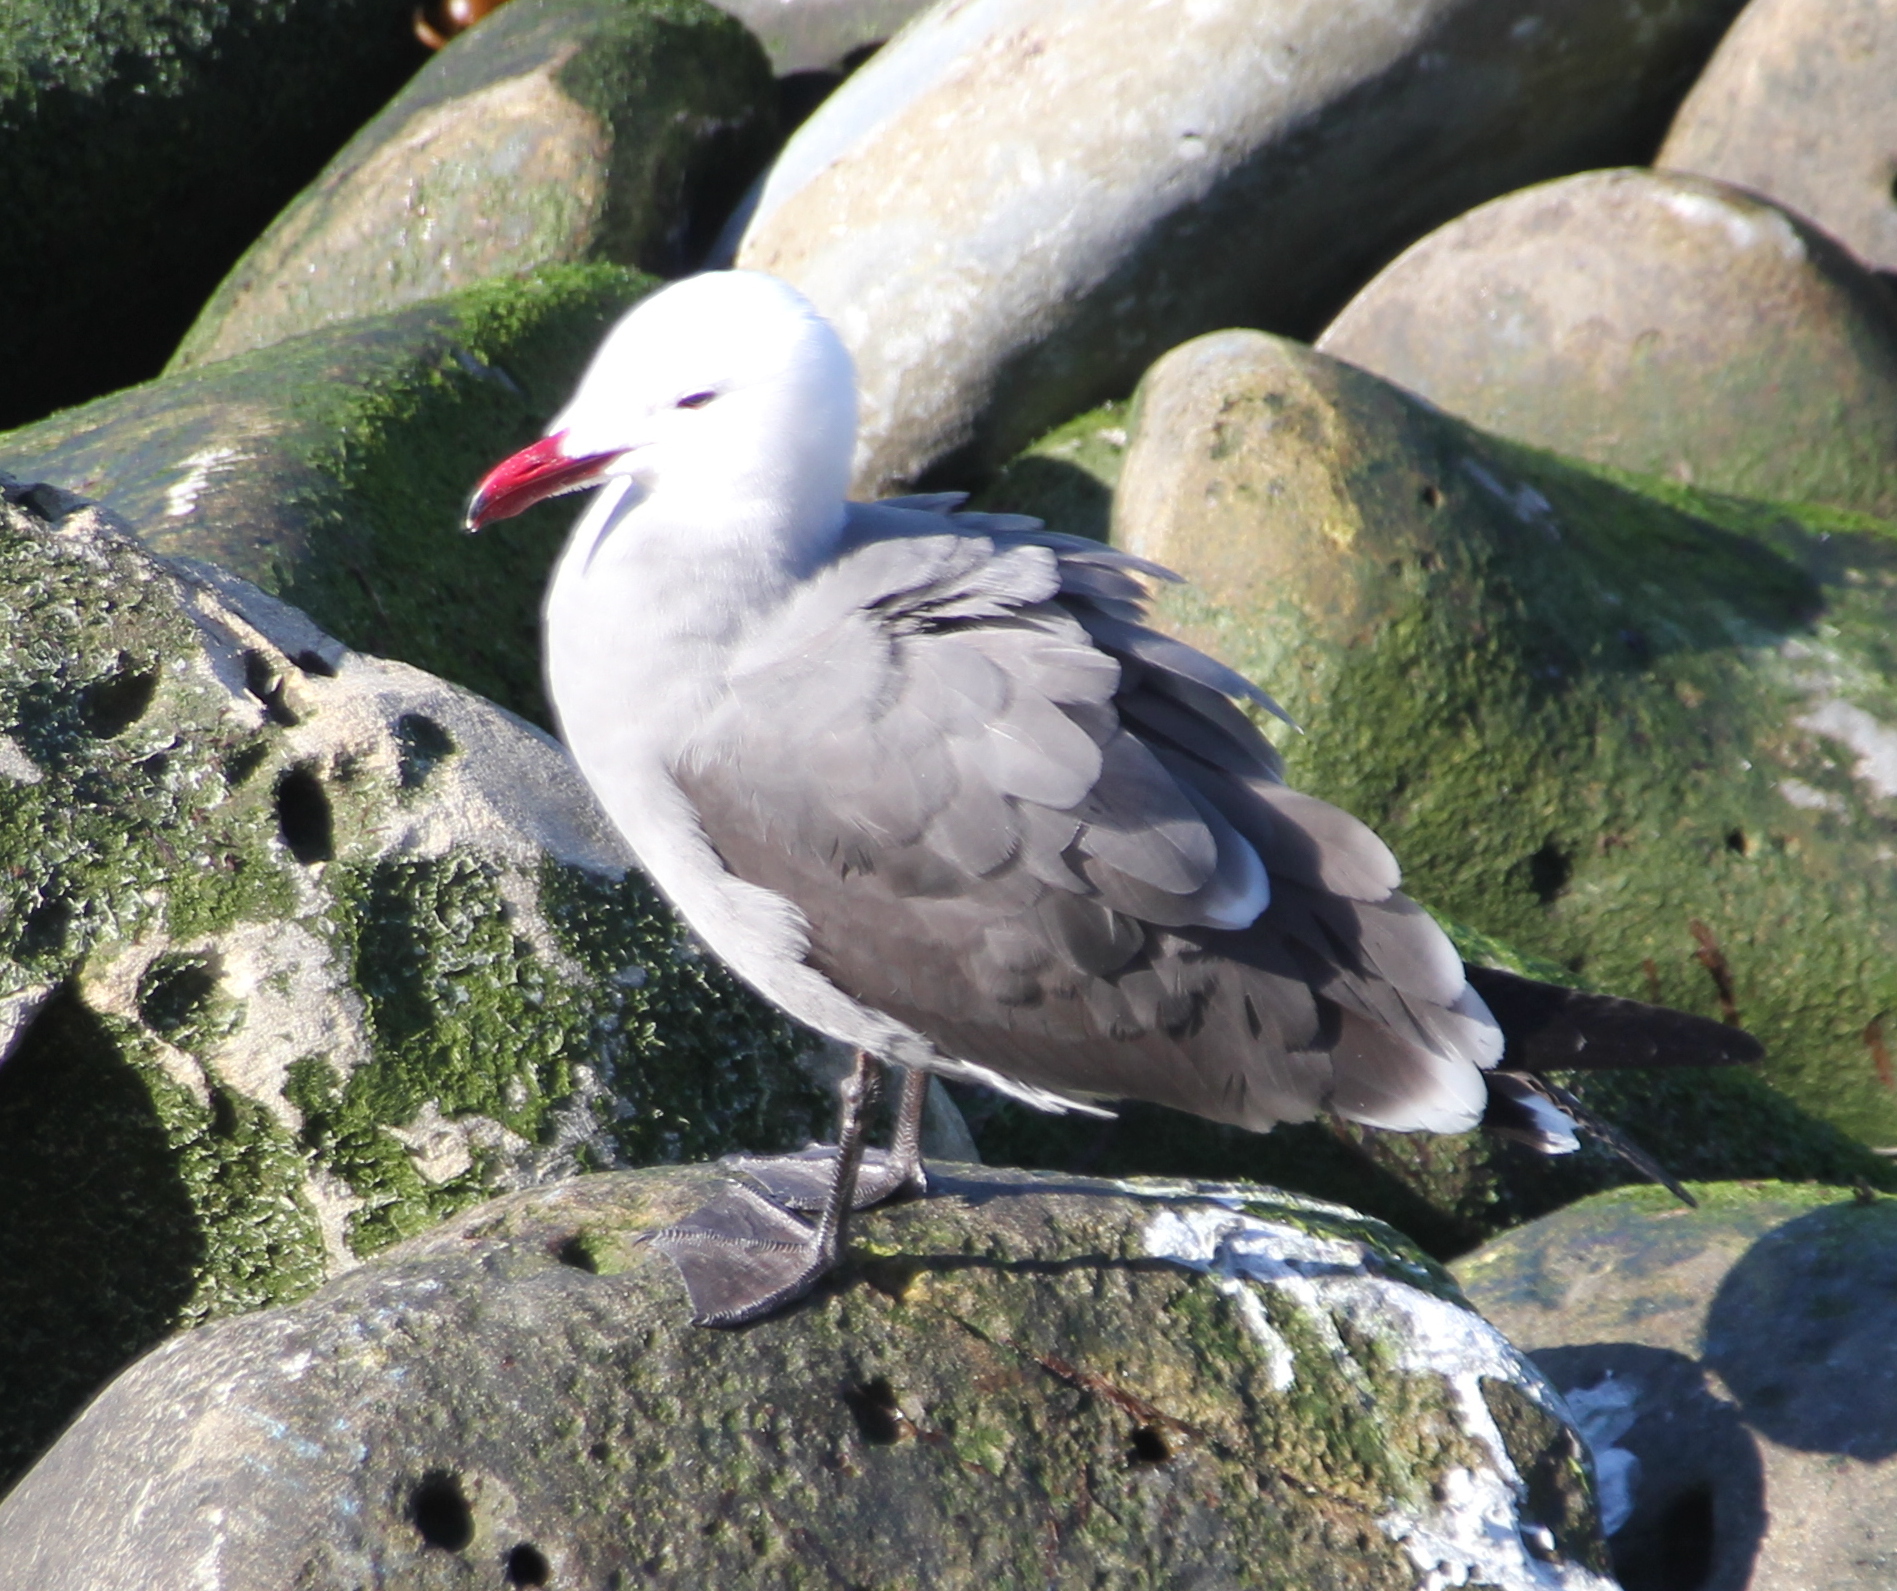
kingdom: Animalia
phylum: Chordata
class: Aves
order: Charadriiformes
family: Laridae
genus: Larus
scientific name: Larus heermanni
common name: Heermann's gull
